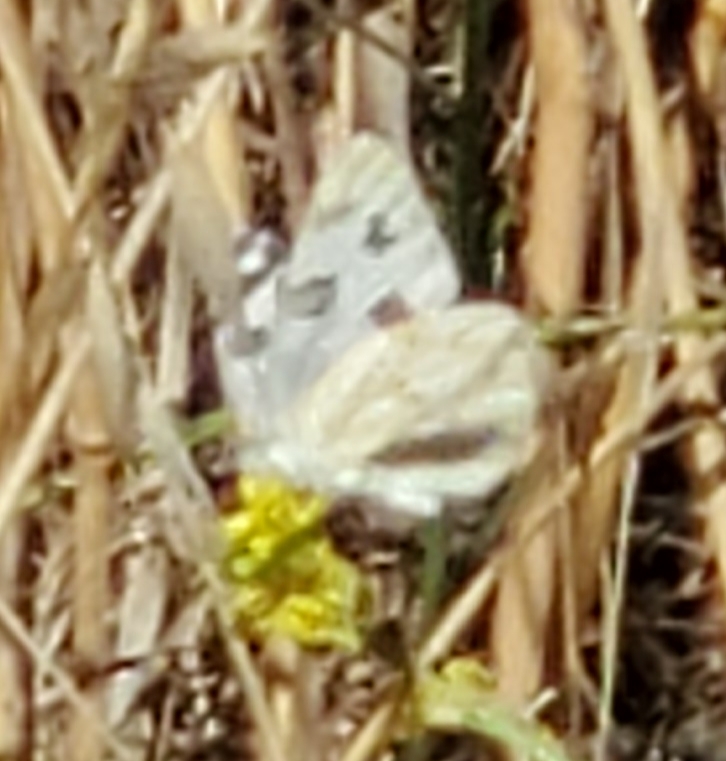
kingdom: Animalia
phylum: Arthropoda
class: Insecta
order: Lepidoptera
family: Pieridae
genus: Pontia
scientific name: Pontia protodice
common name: Checkered white
